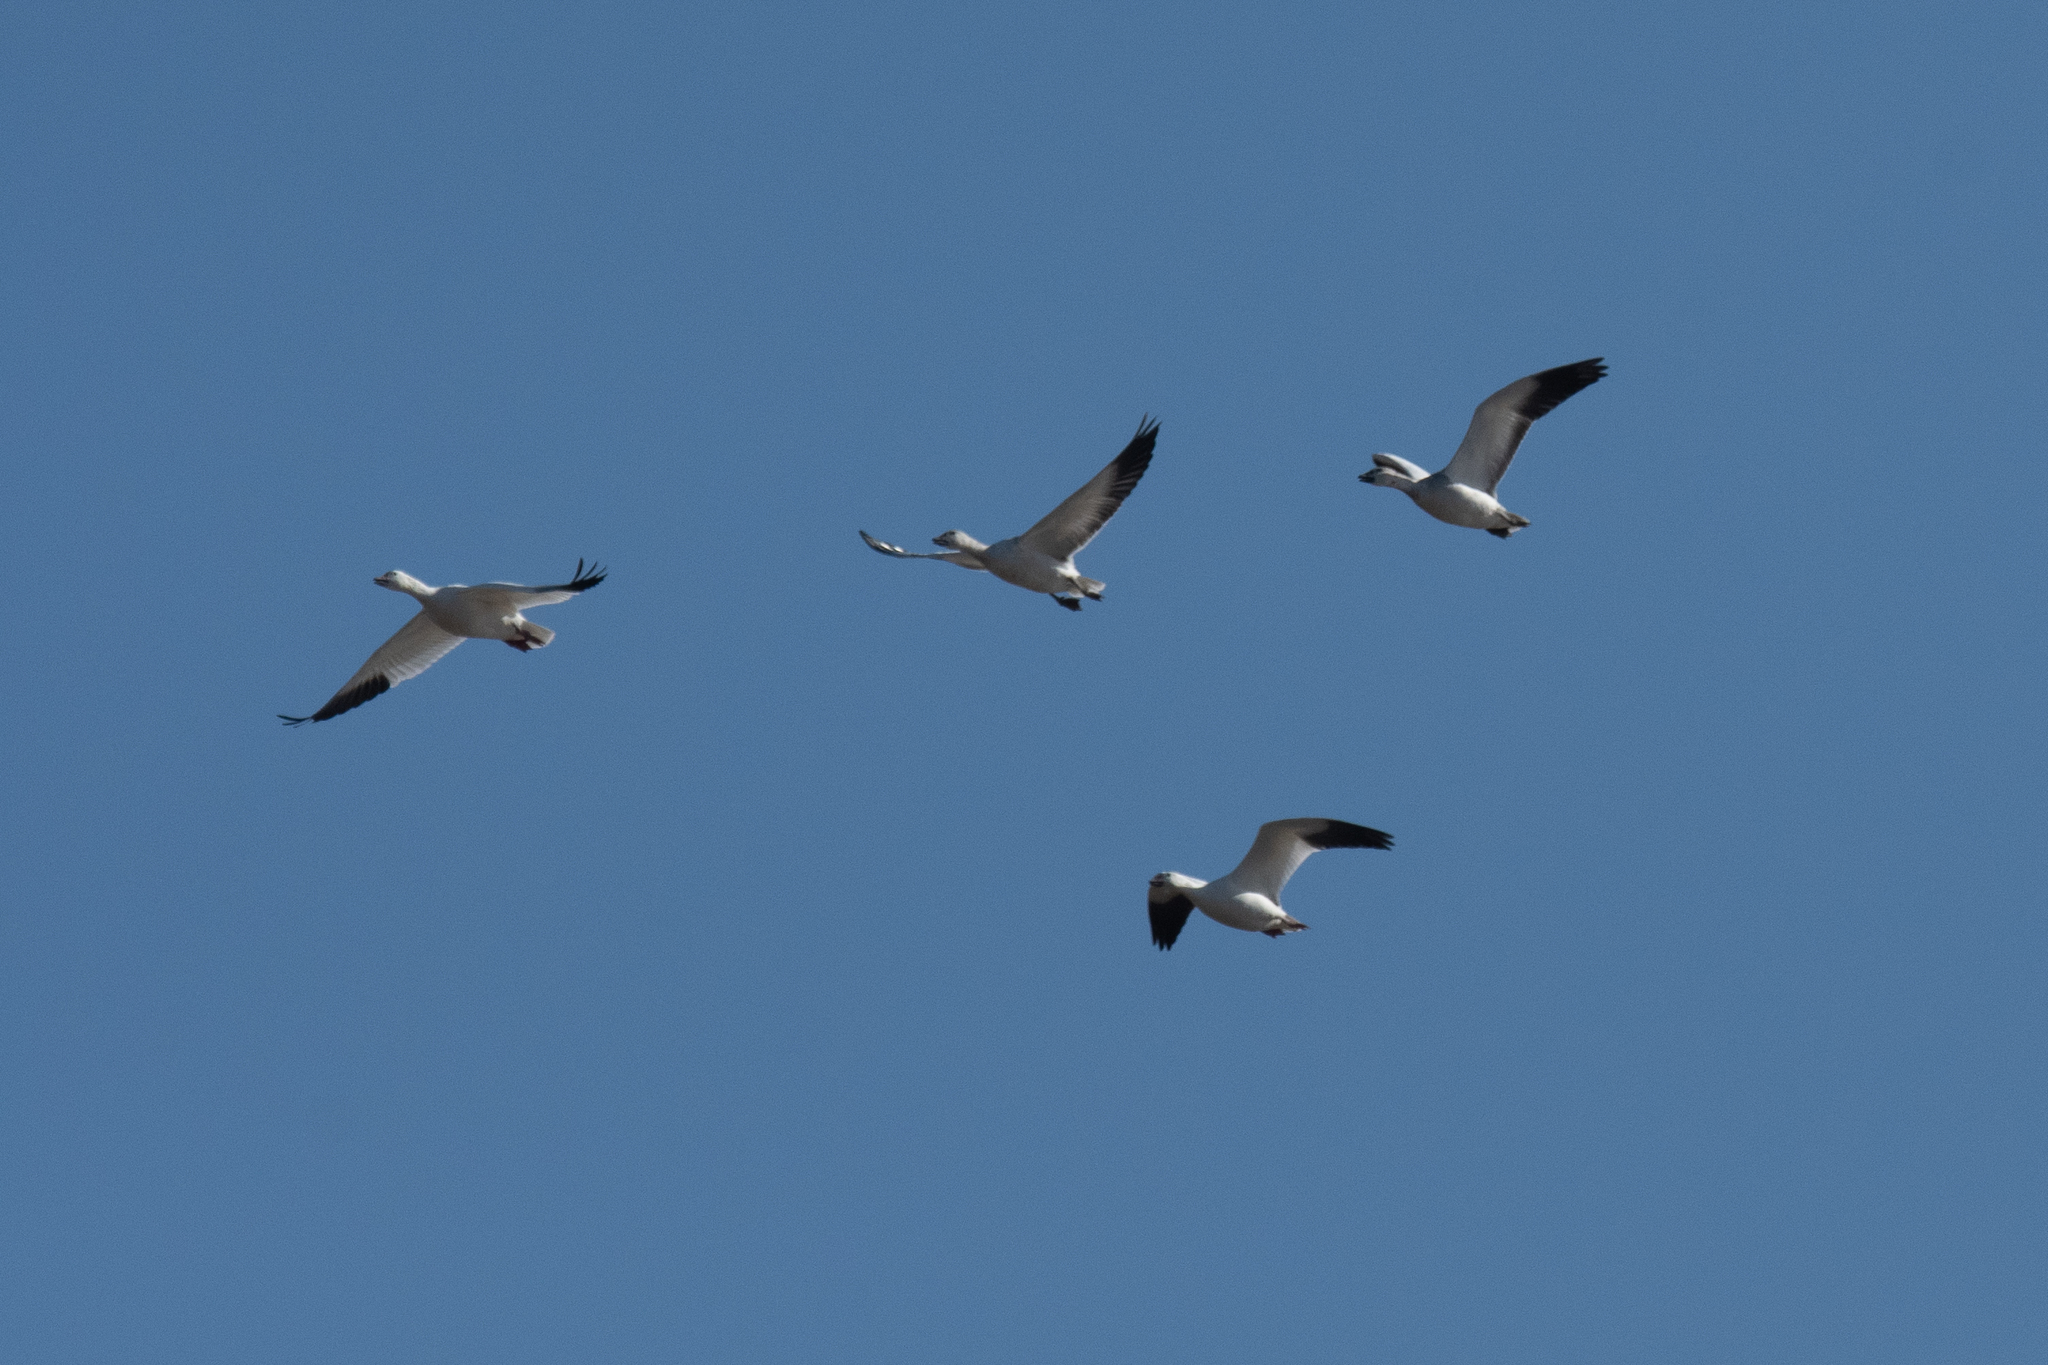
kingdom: Animalia
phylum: Chordata
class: Aves
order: Anseriformes
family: Anatidae
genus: Anser
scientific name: Anser caerulescens
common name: Snow goose
